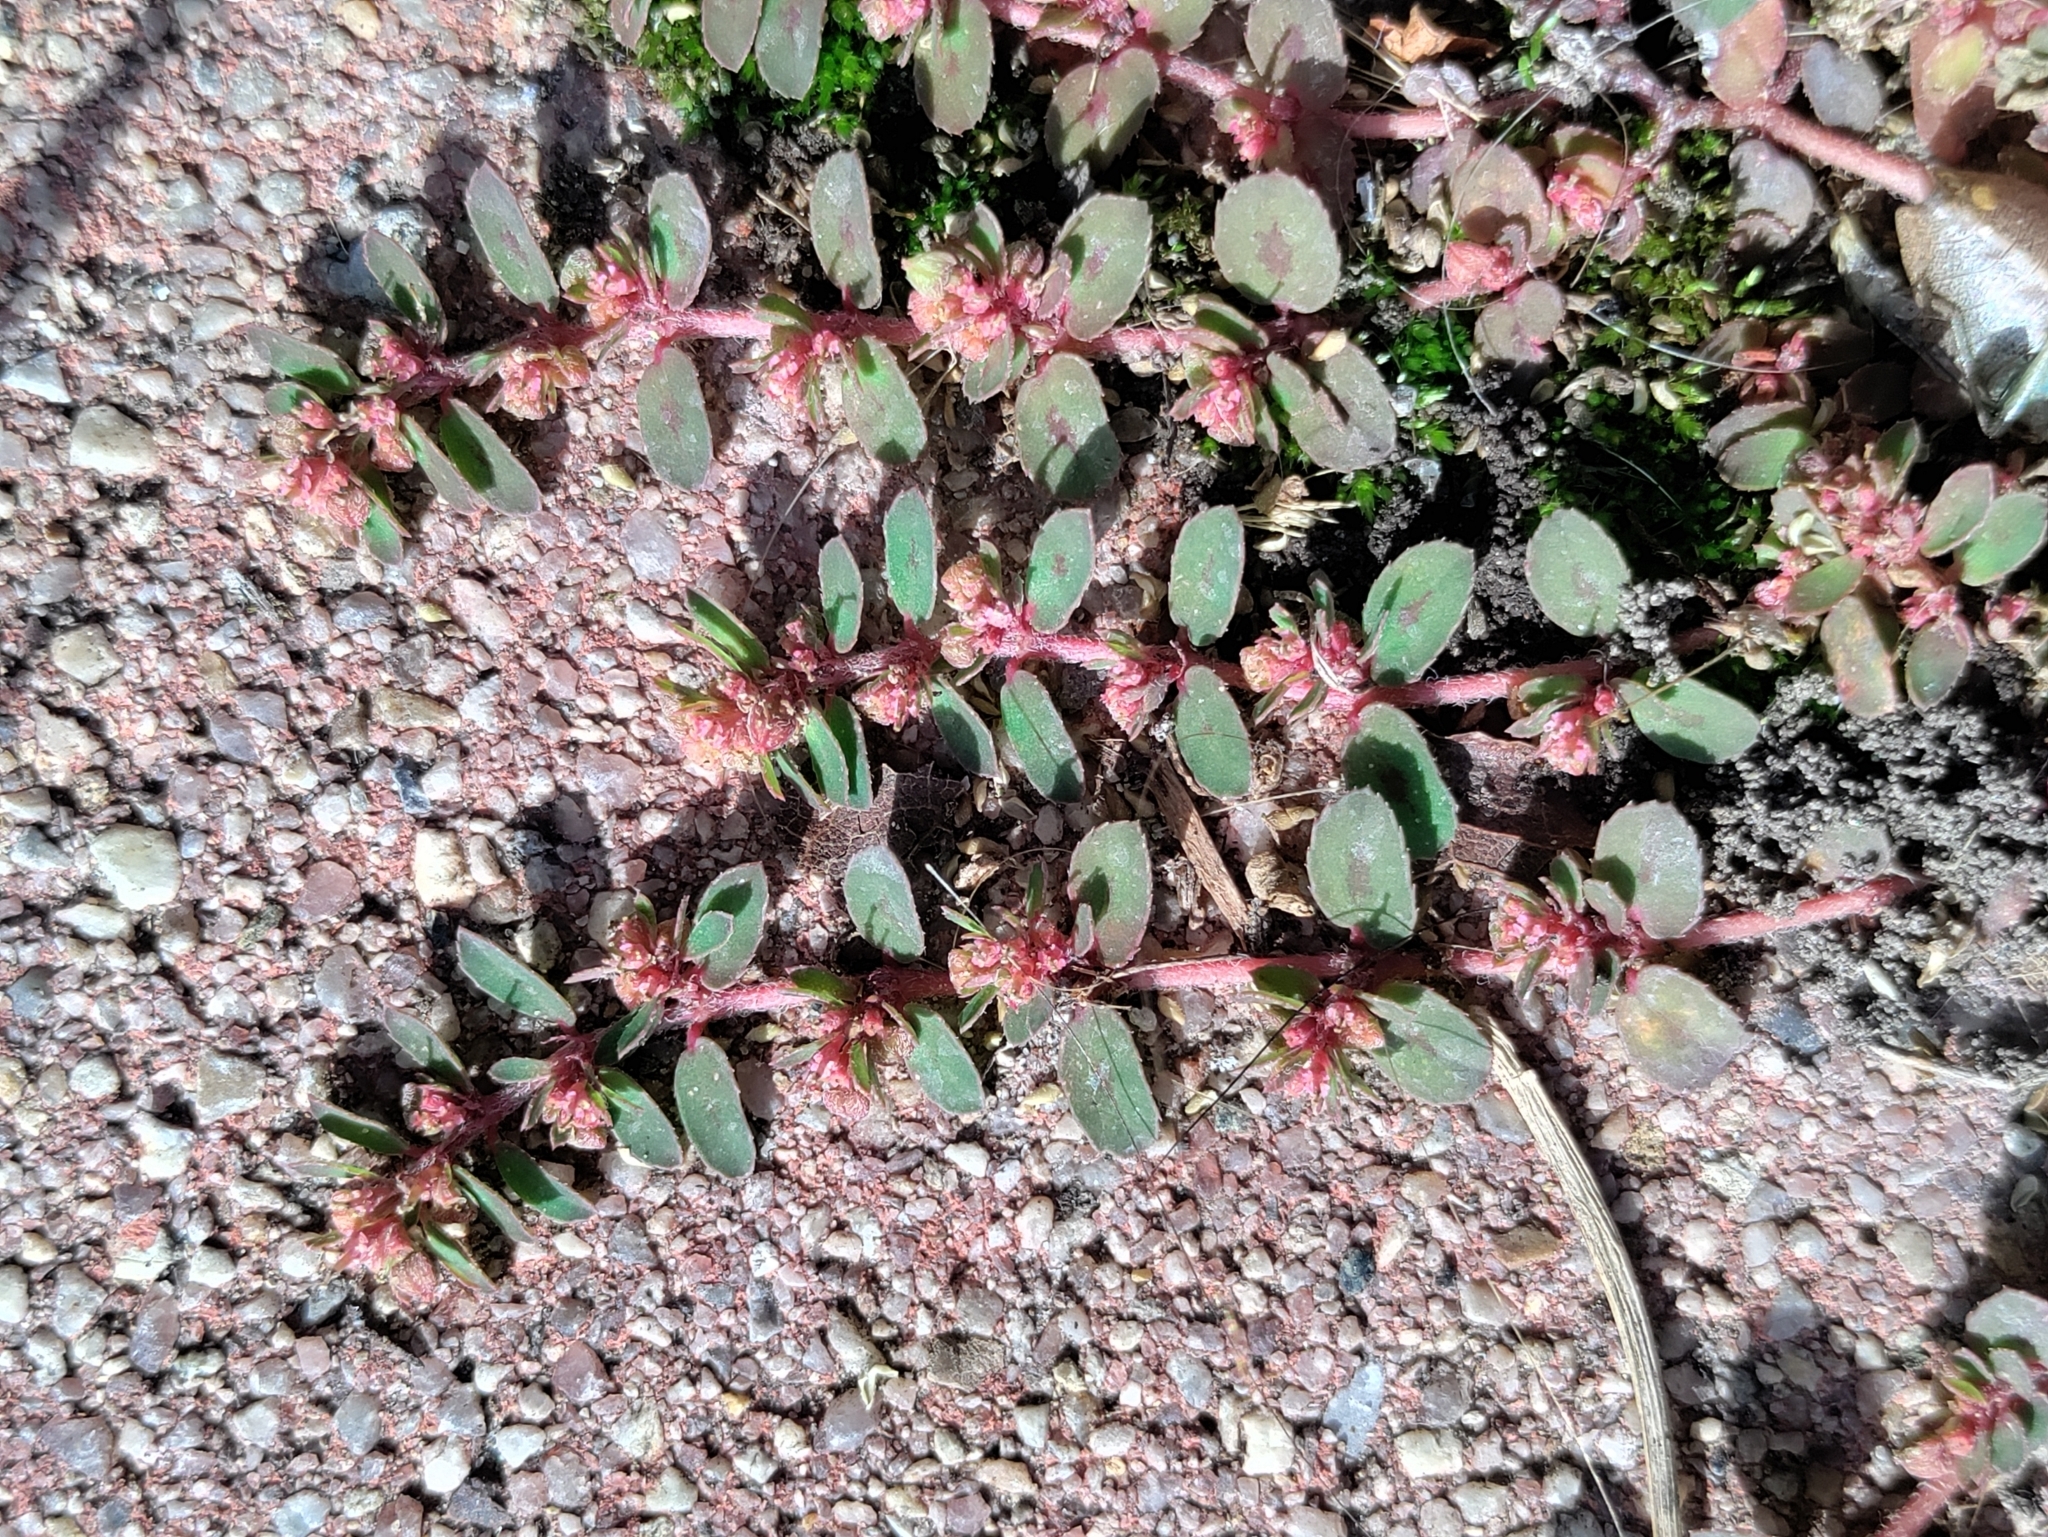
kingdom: Plantae
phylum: Tracheophyta
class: Magnoliopsida
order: Malpighiales
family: Euphorbiaceae
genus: Euphorbia
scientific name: Euphorbia maculata
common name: Spotted spurge
